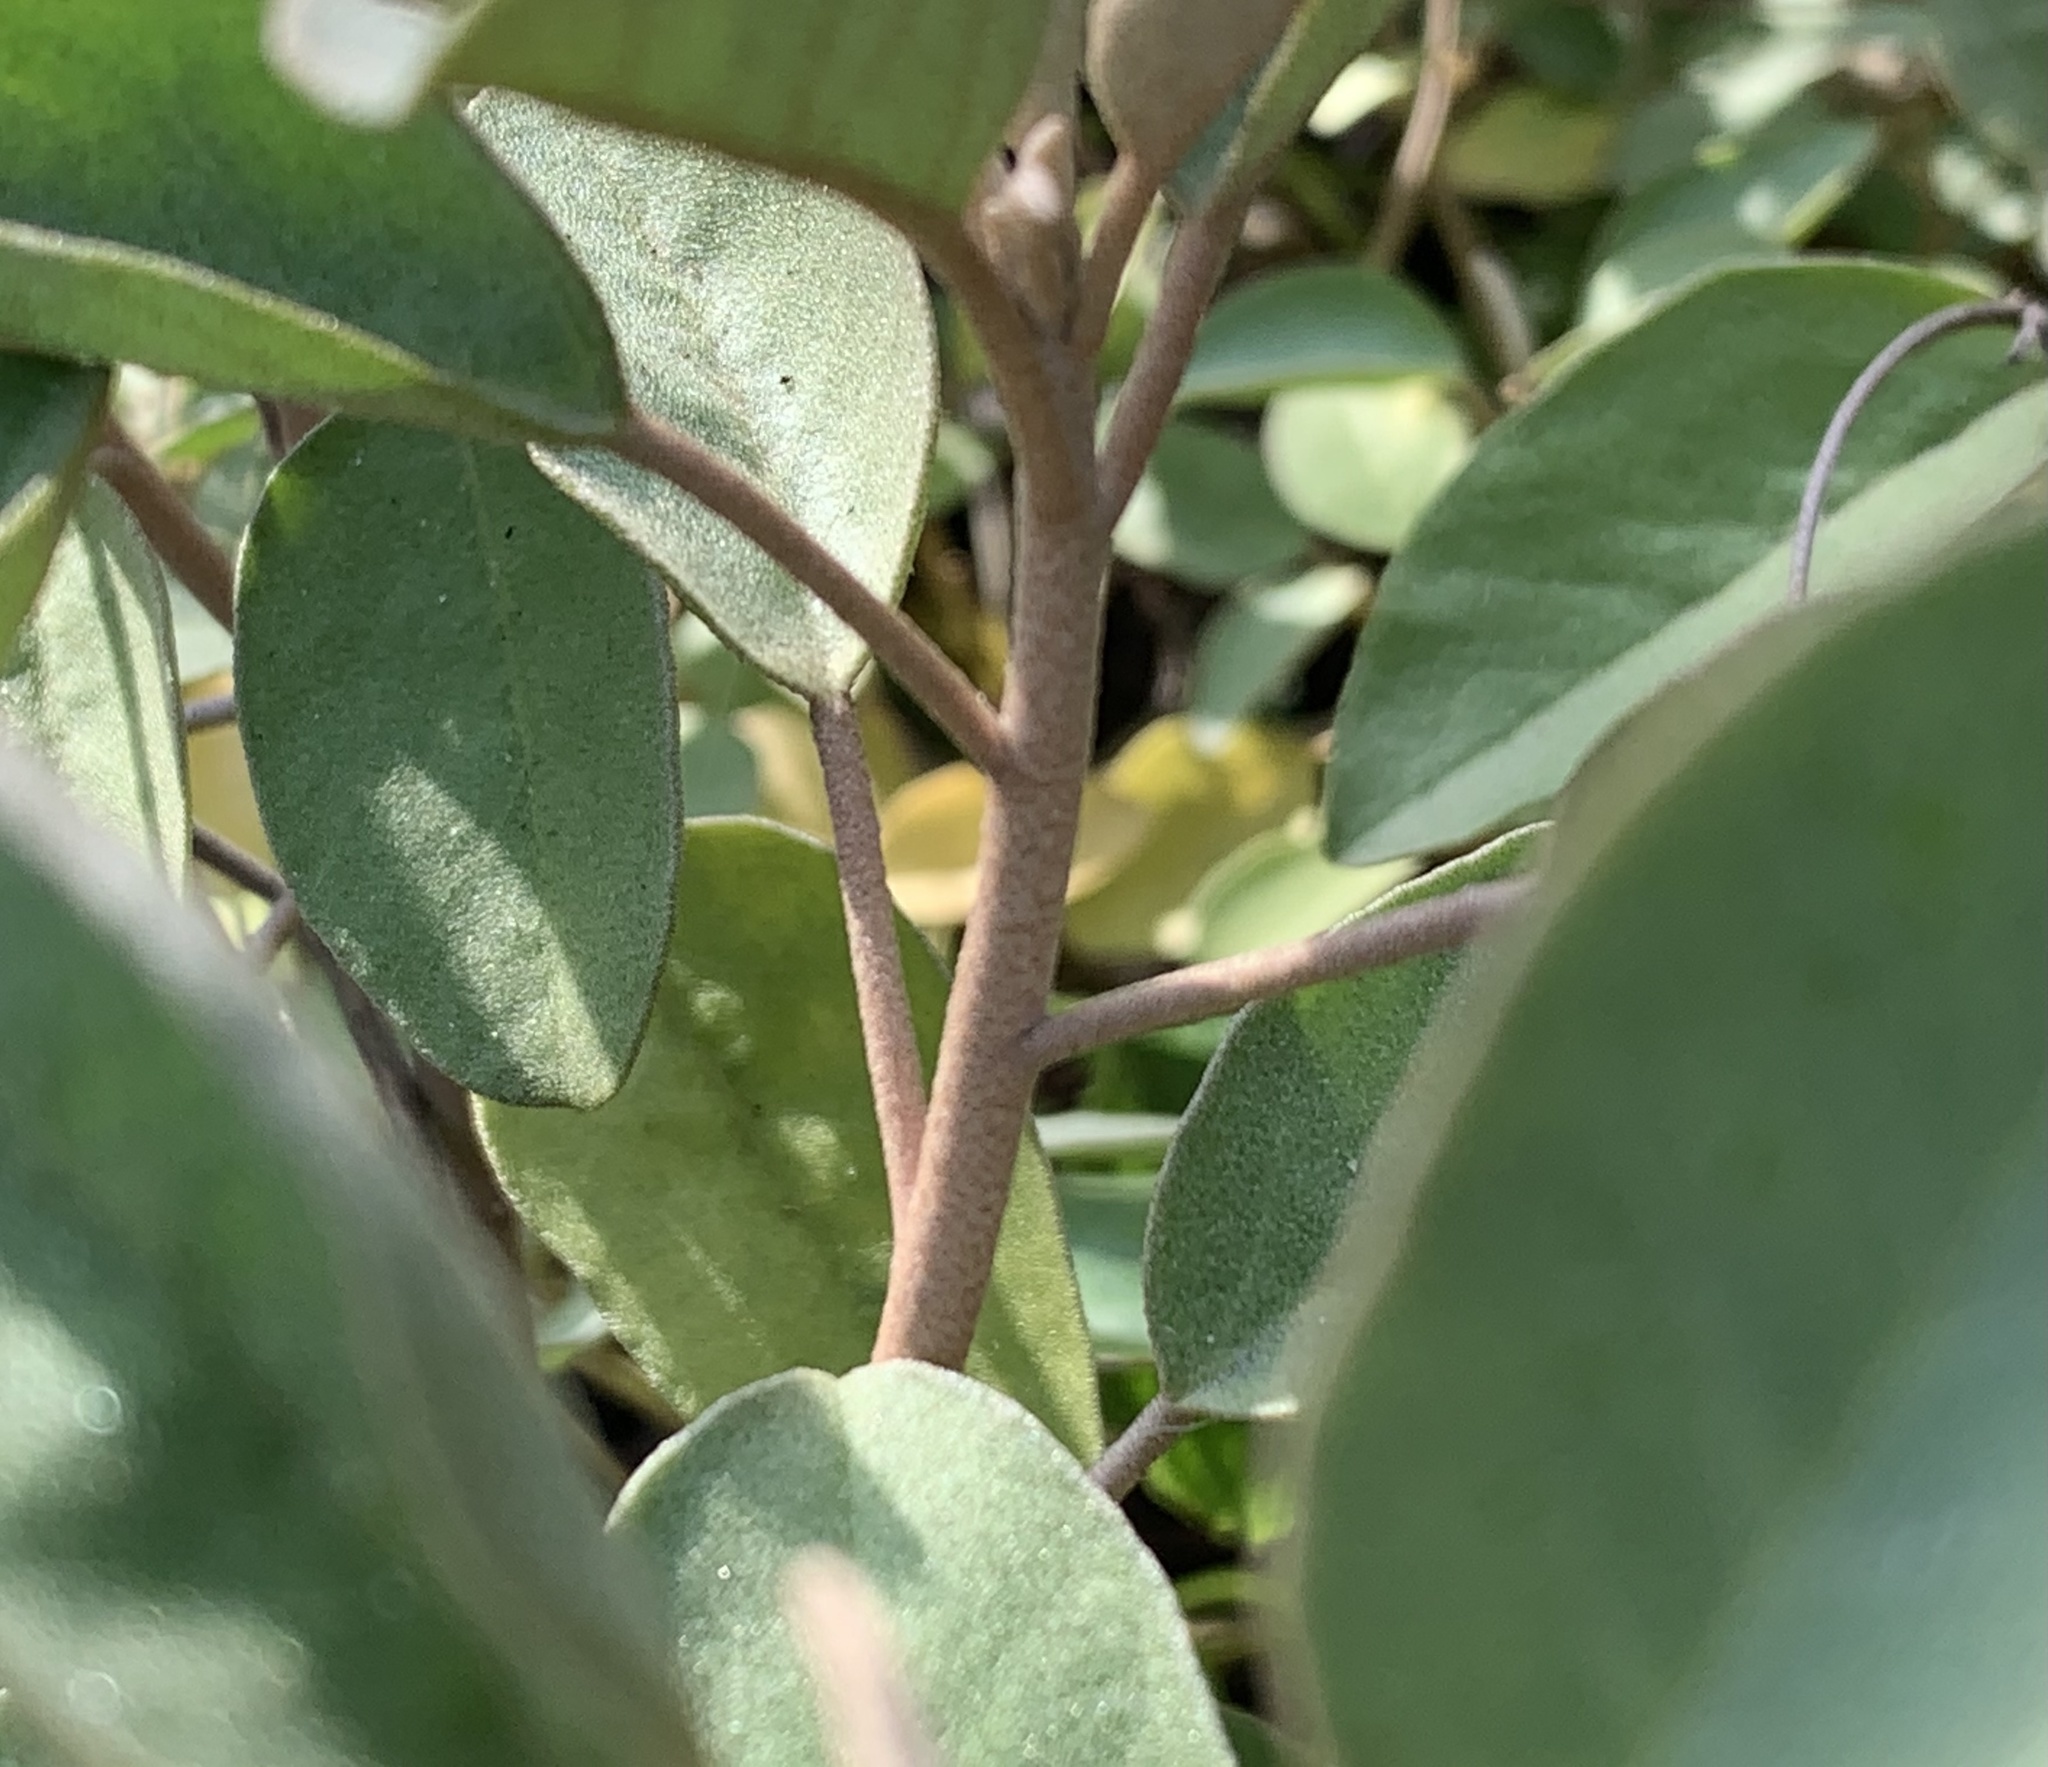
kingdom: Plantae
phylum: Tracheophyta
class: Magnoliopsida
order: Malpighiales
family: Euphorbiaceae
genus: Croton
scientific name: Croton punctatus
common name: Beach-tea
